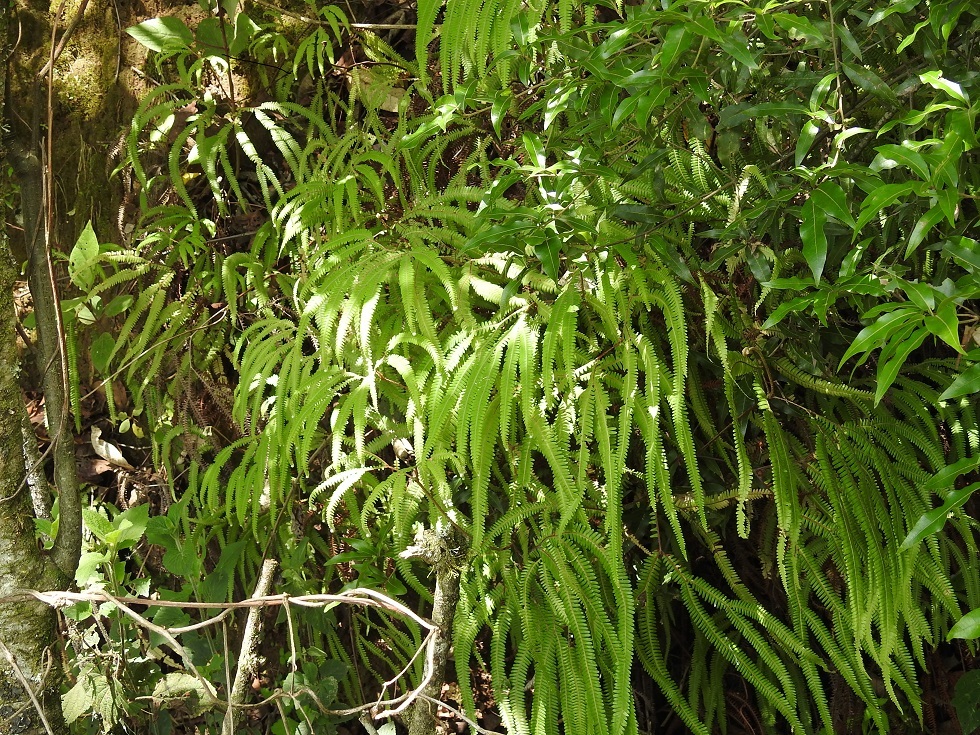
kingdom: Plantae
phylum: Tracheophyta
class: Polypodiopsida
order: Gleicheniales
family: Gleicheniaceae
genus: Sticherus
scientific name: Sticherus underwoodianus
